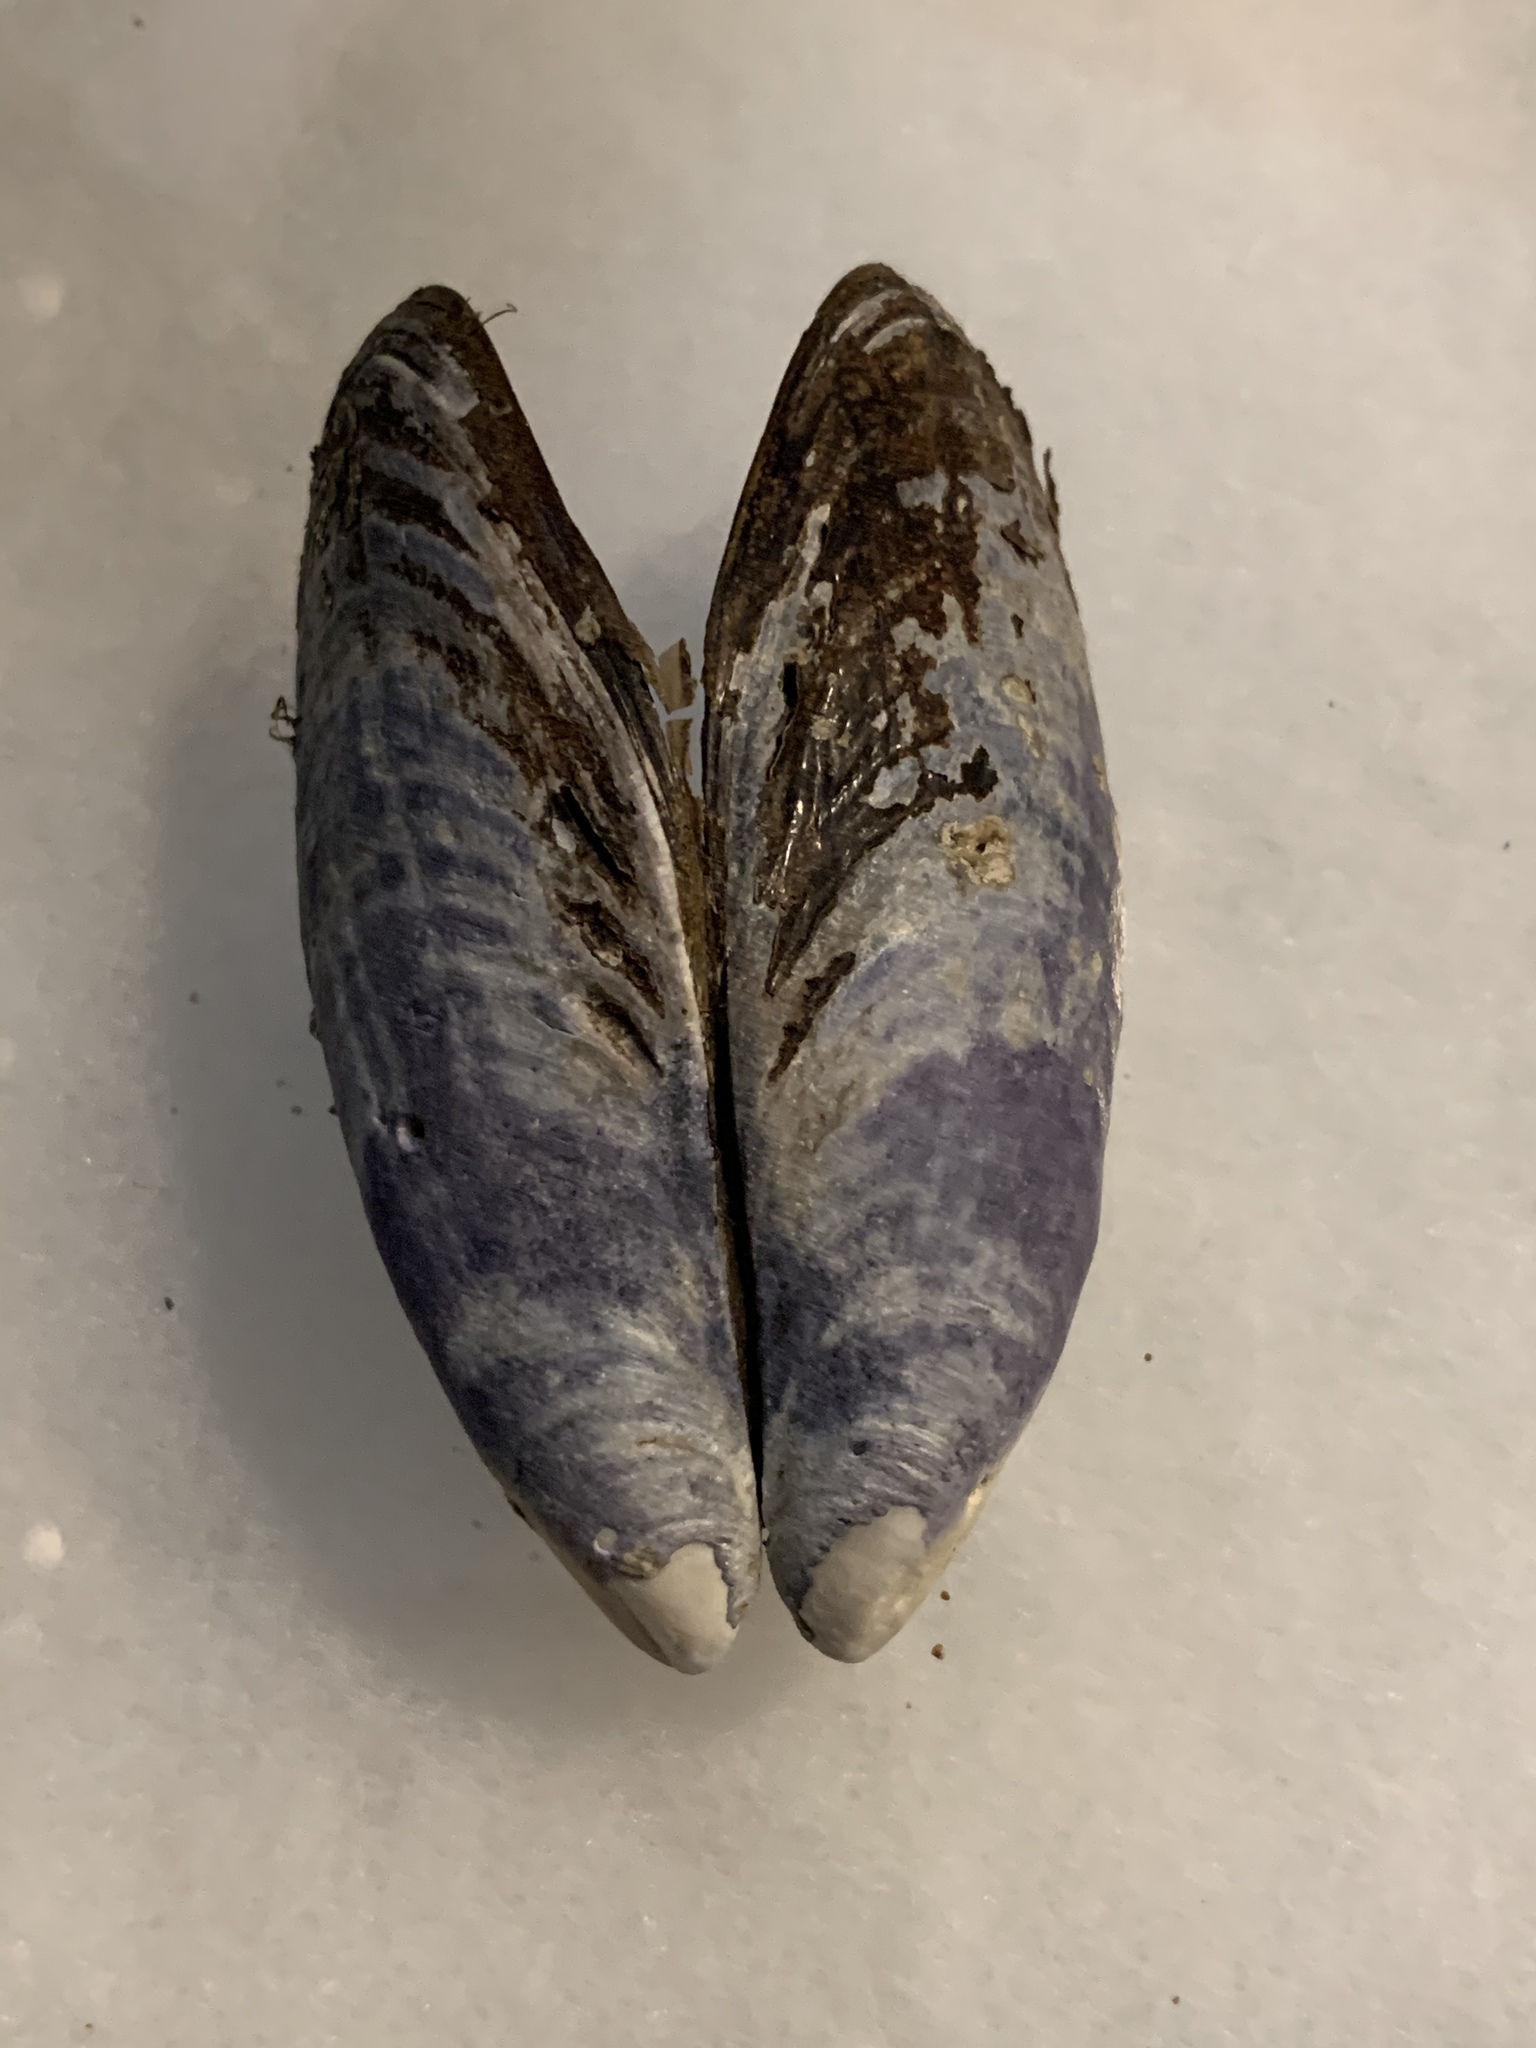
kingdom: Animalia
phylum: Mollusca
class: Bivalvia
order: Mytilida
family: Mytilidae
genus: Mytilus
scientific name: Mytilus californianus
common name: California mussel
